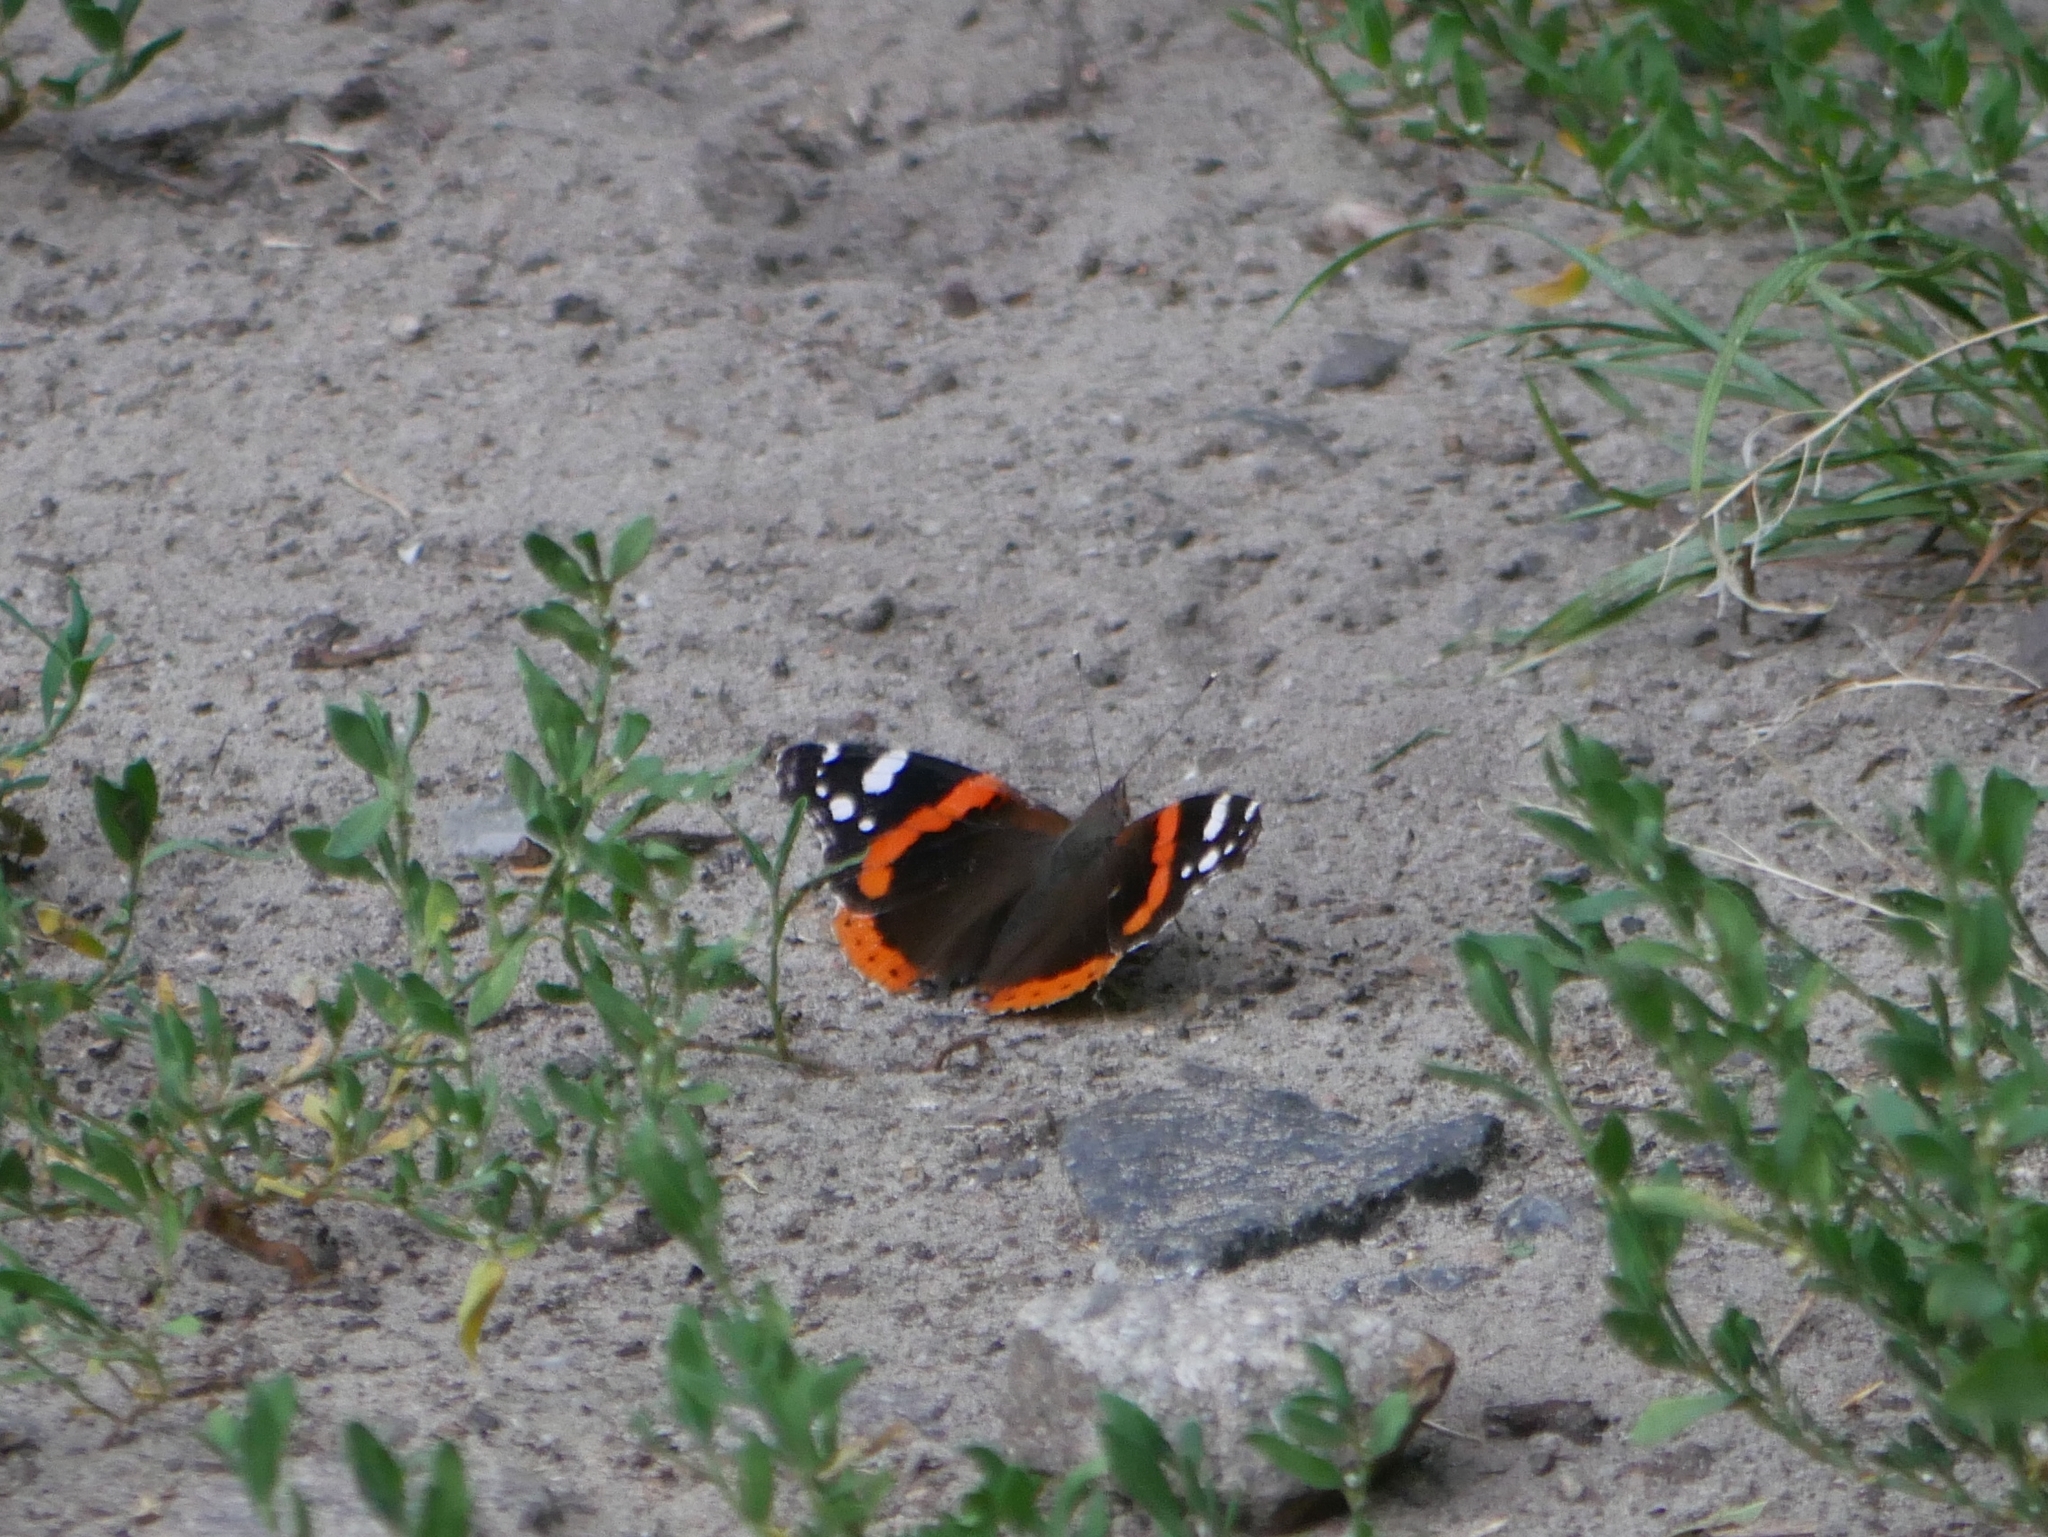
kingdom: Animalia
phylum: Arthropoda
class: Insecta
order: Lepidoptera
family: Nymphalidae
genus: Vanessa
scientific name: Vanessa atalanta
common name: Red admiral
